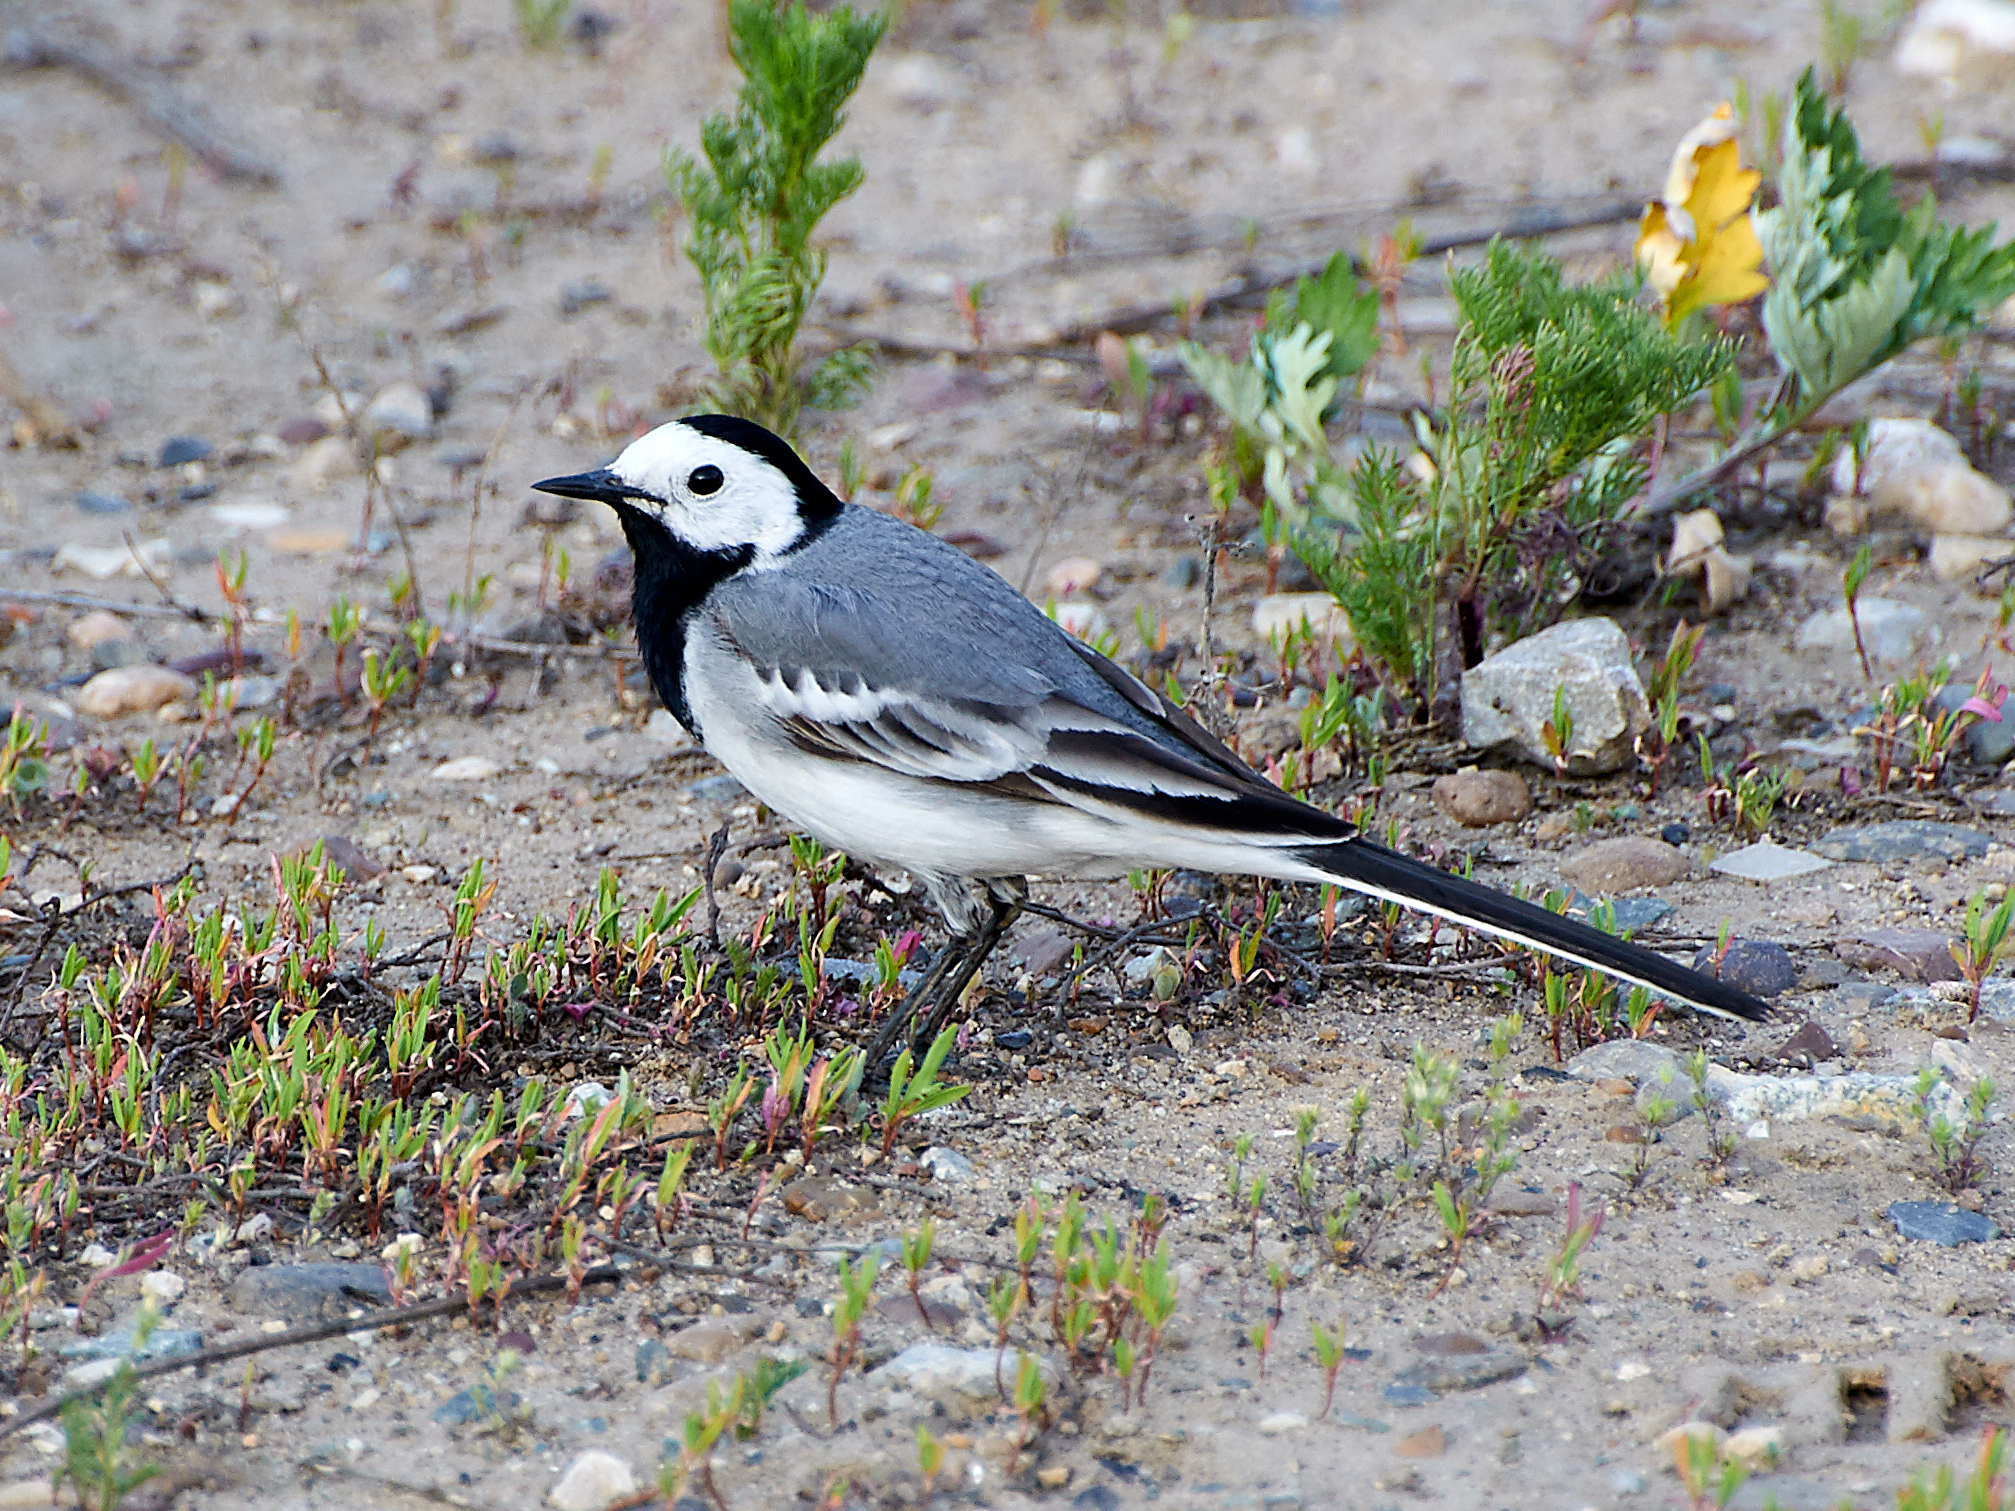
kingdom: Animalia
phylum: Chordata
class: Aves
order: Passeriformes
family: Motacillidae
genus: Motacilla
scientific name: Motacilla alba
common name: White wagtail
